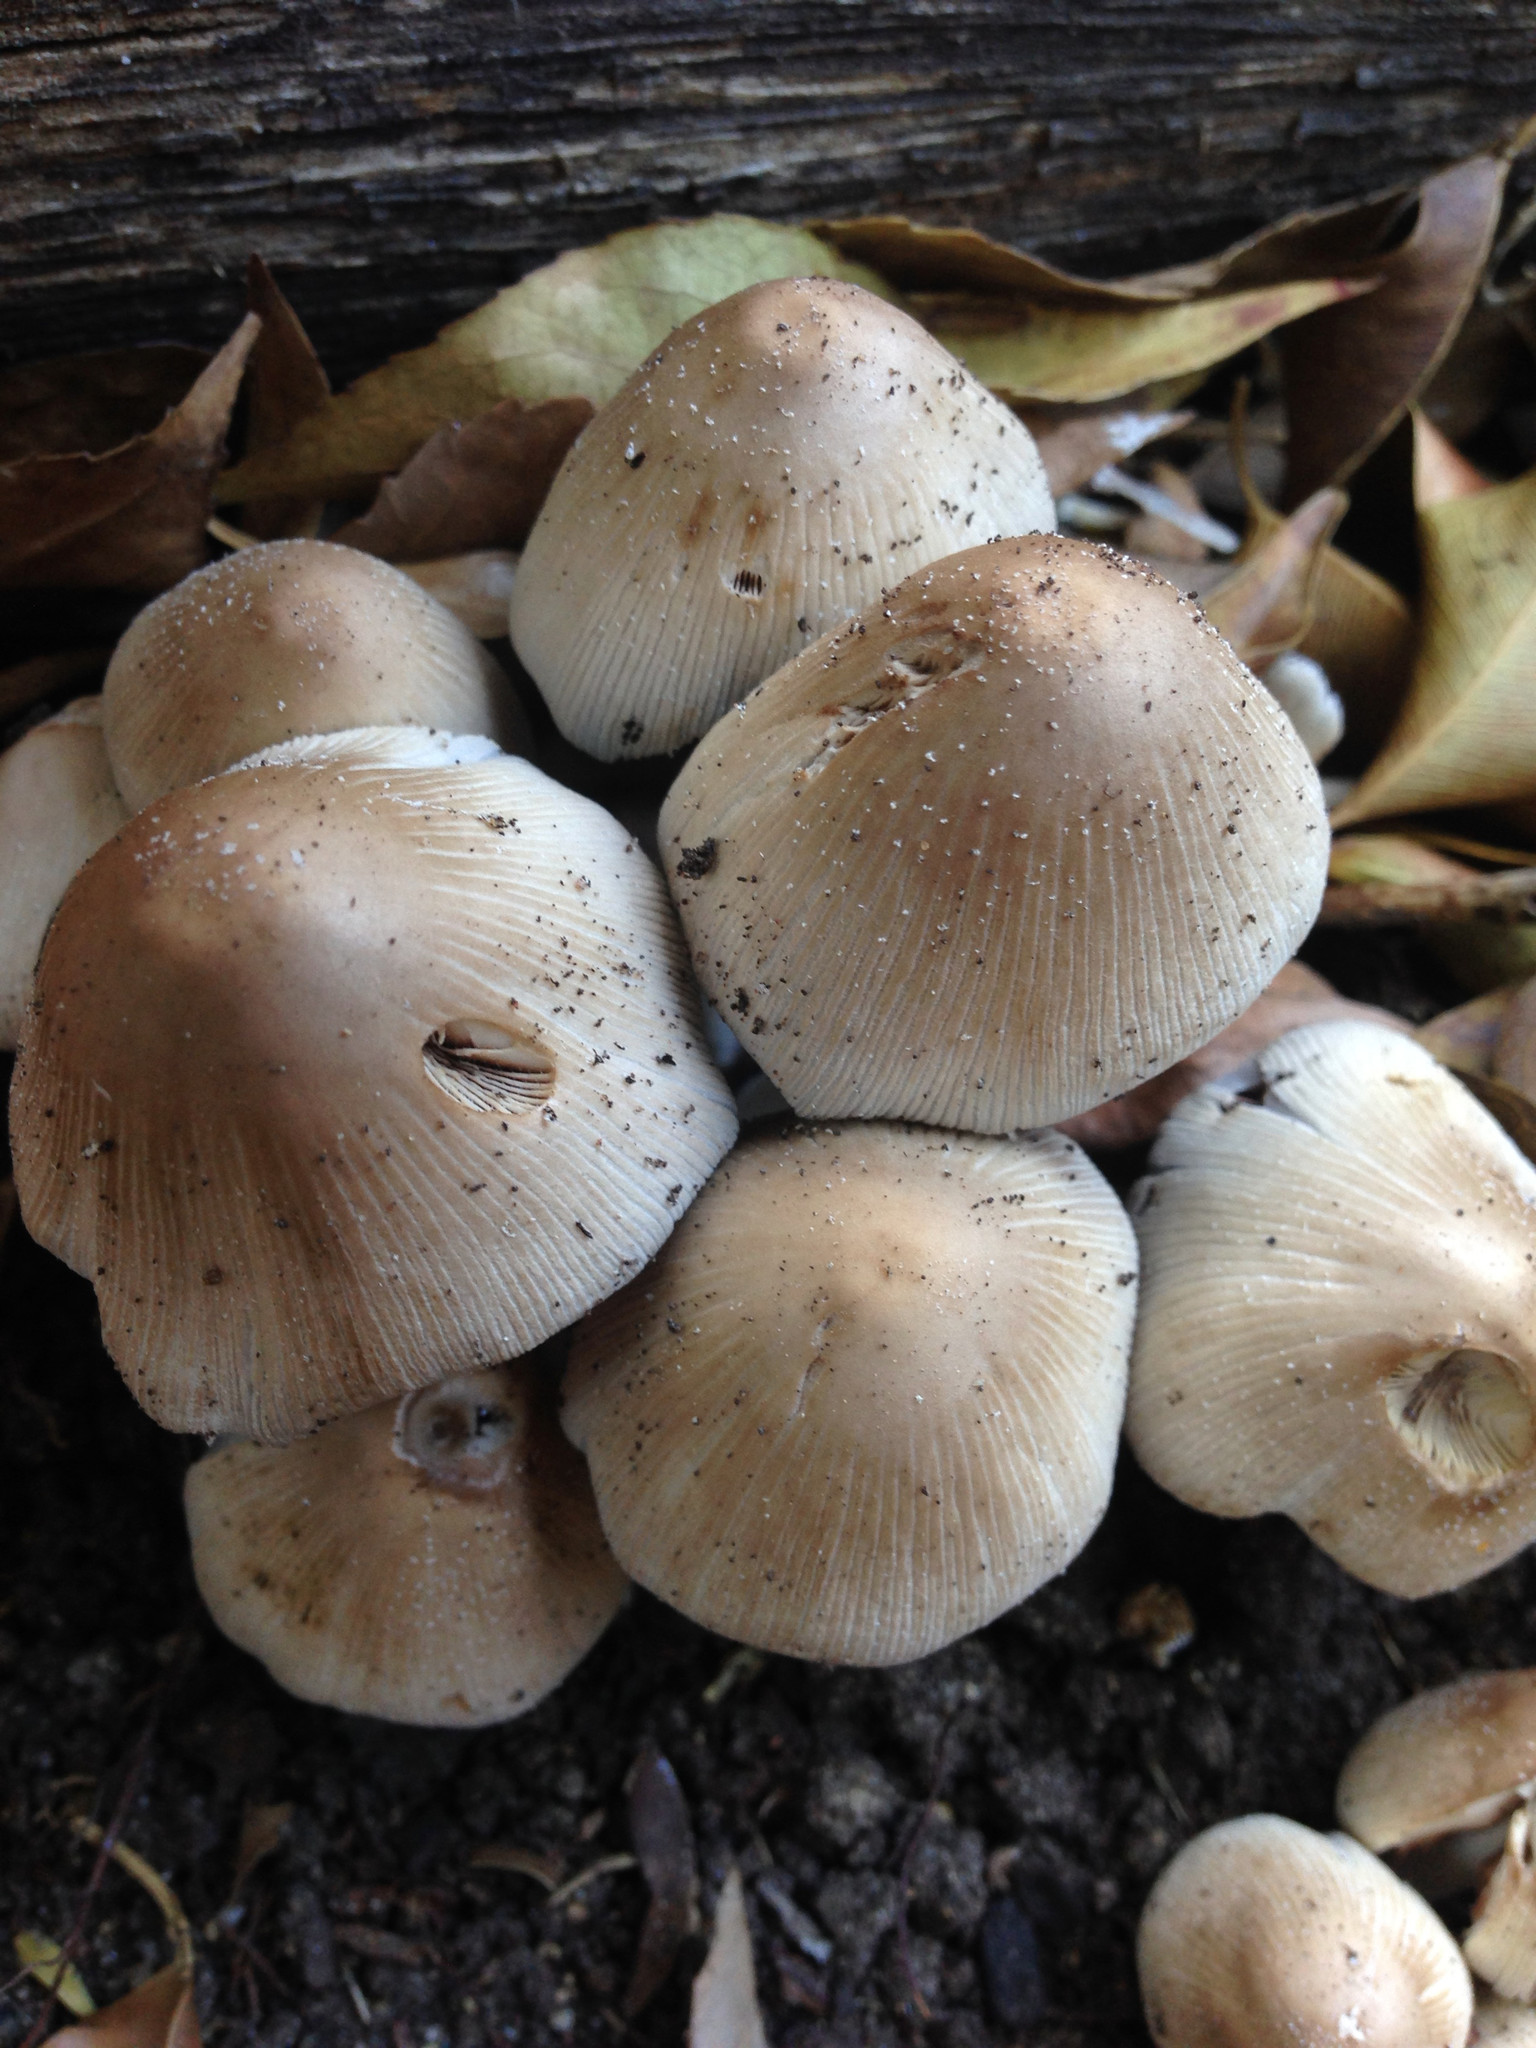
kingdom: Fungi
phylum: Basidiomycota
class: Agaricomycetes
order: Agaricales
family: Psathyrellaceae
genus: Coprinellus
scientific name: Coprinellus micaceus
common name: Glistening ink-cap
